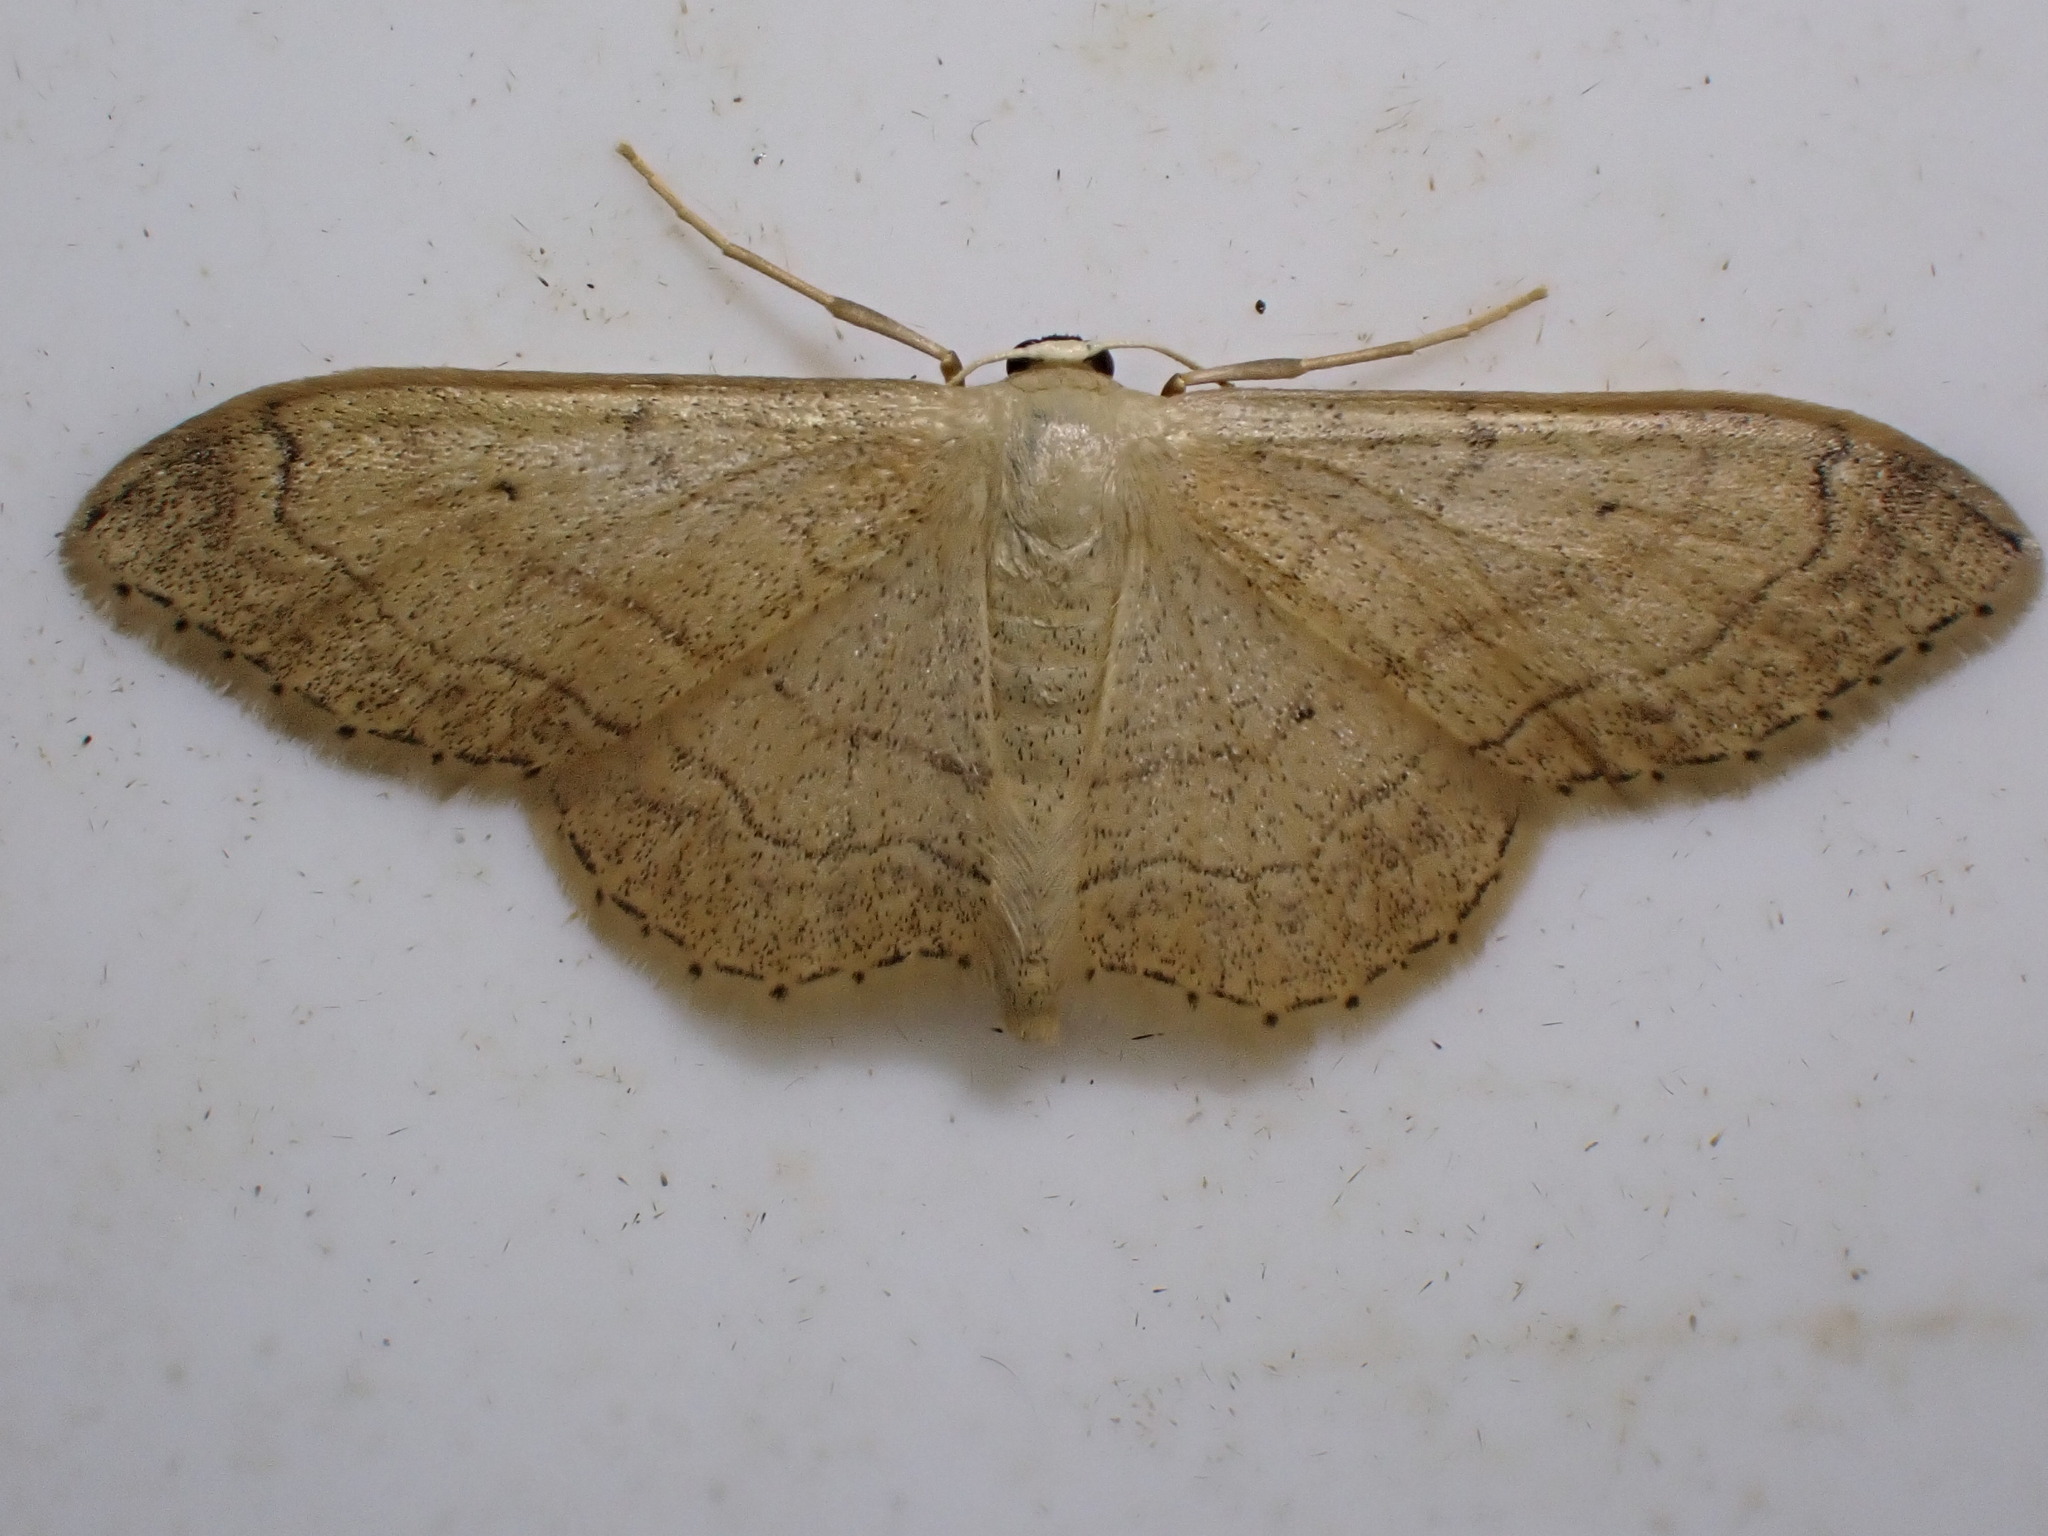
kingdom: Animalia
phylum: Arthropoda
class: Insecta
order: Lepidoptera
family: Geometridae
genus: Idaea
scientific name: Idaea aversata
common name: Riband wave
